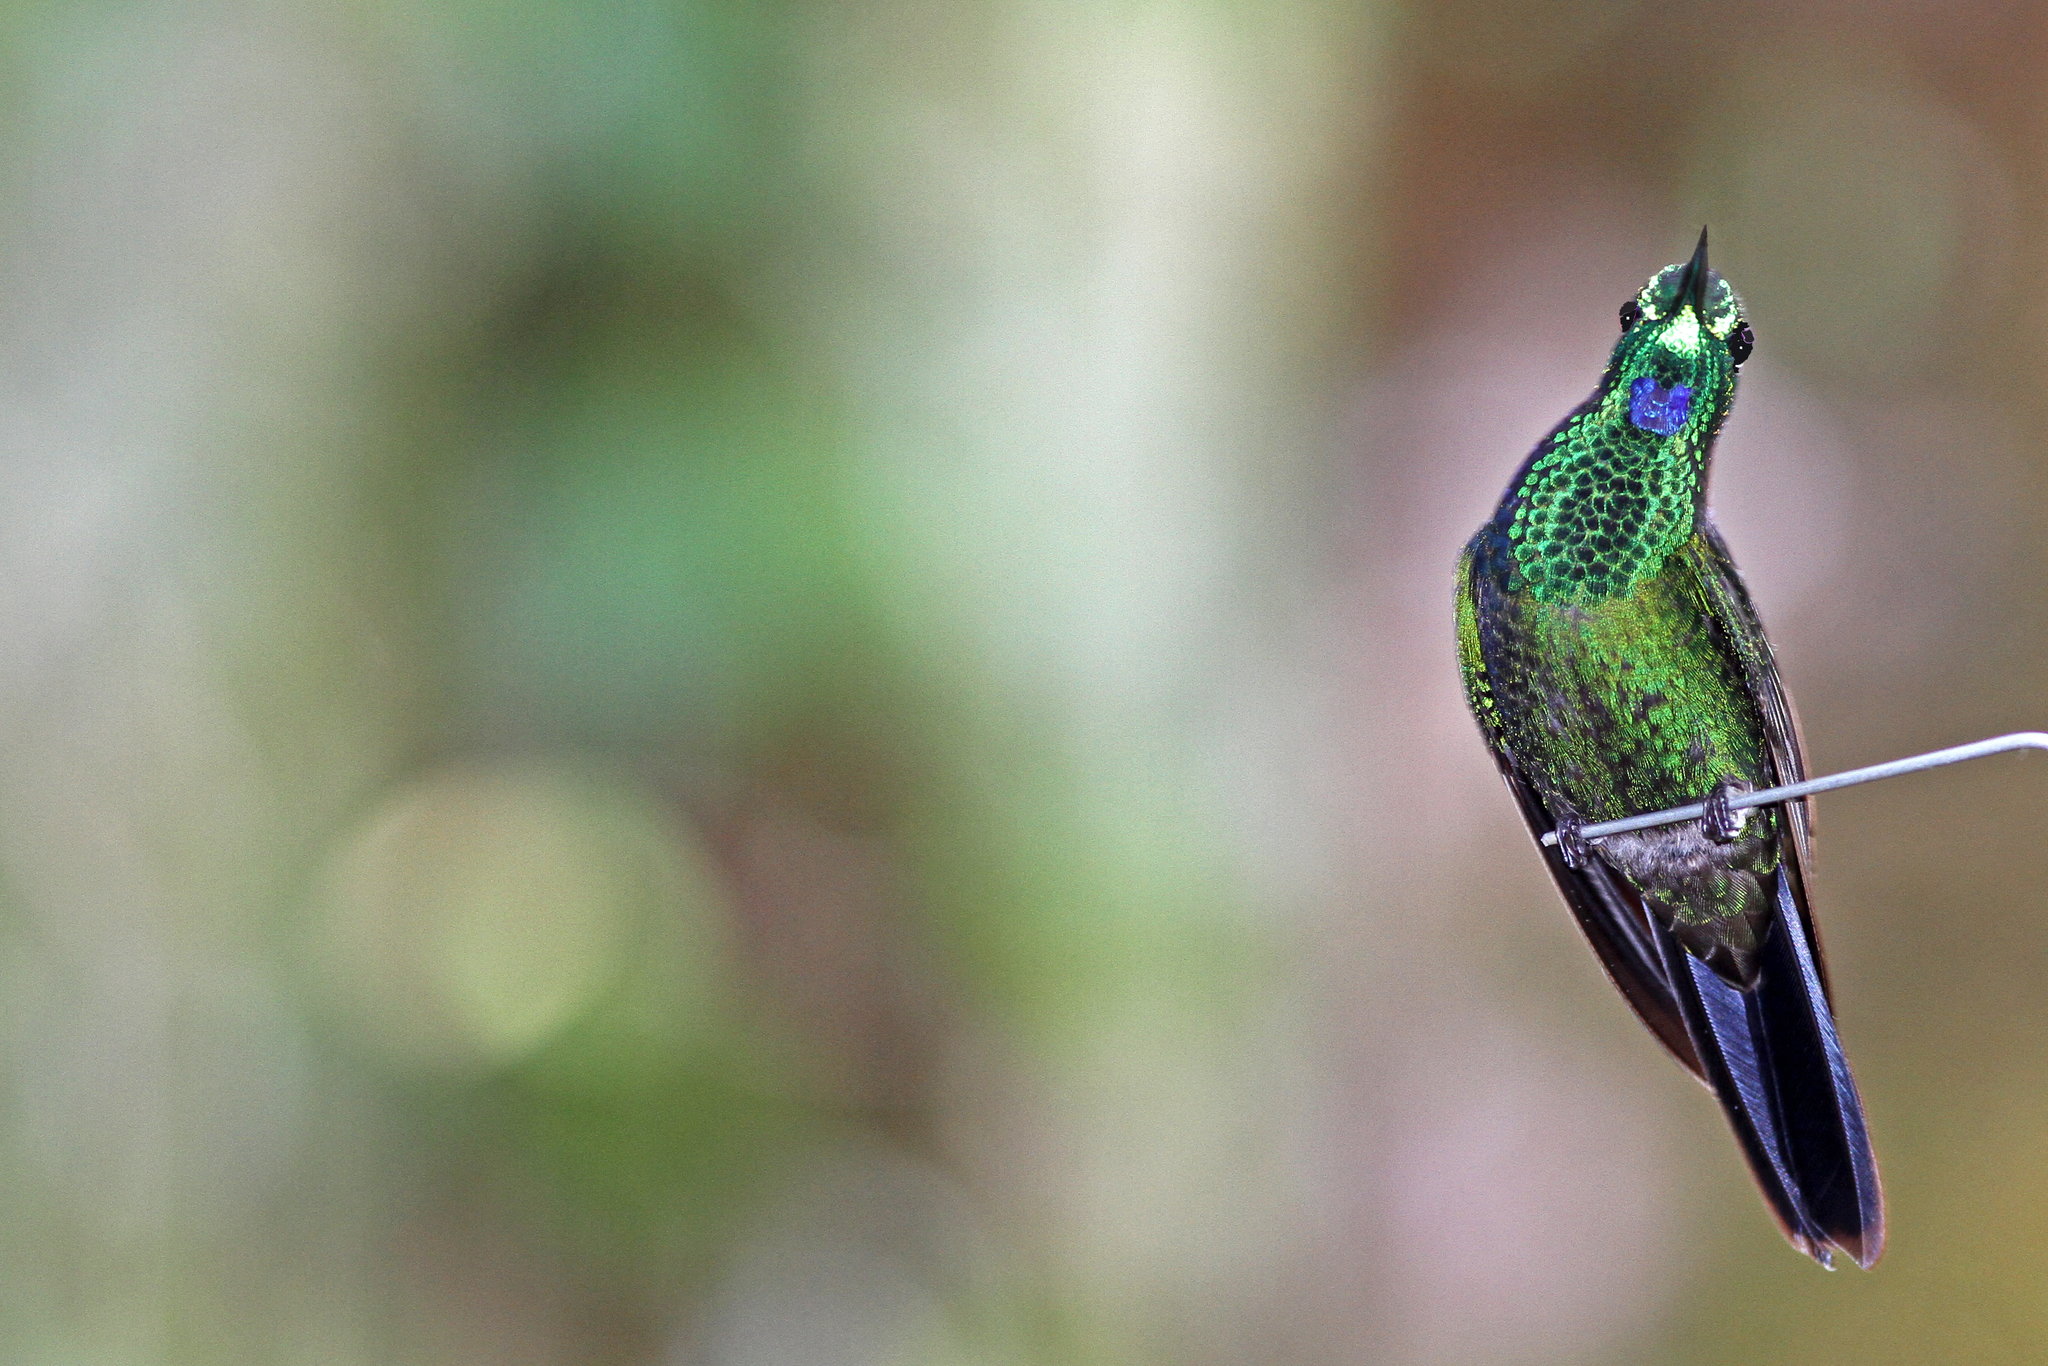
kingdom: Animalia
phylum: Chordata
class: Aves
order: Apodiformes
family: Trochilidae
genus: Heliodoxa
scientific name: Heliodoxa jacula
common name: Green-crowned brilliant
